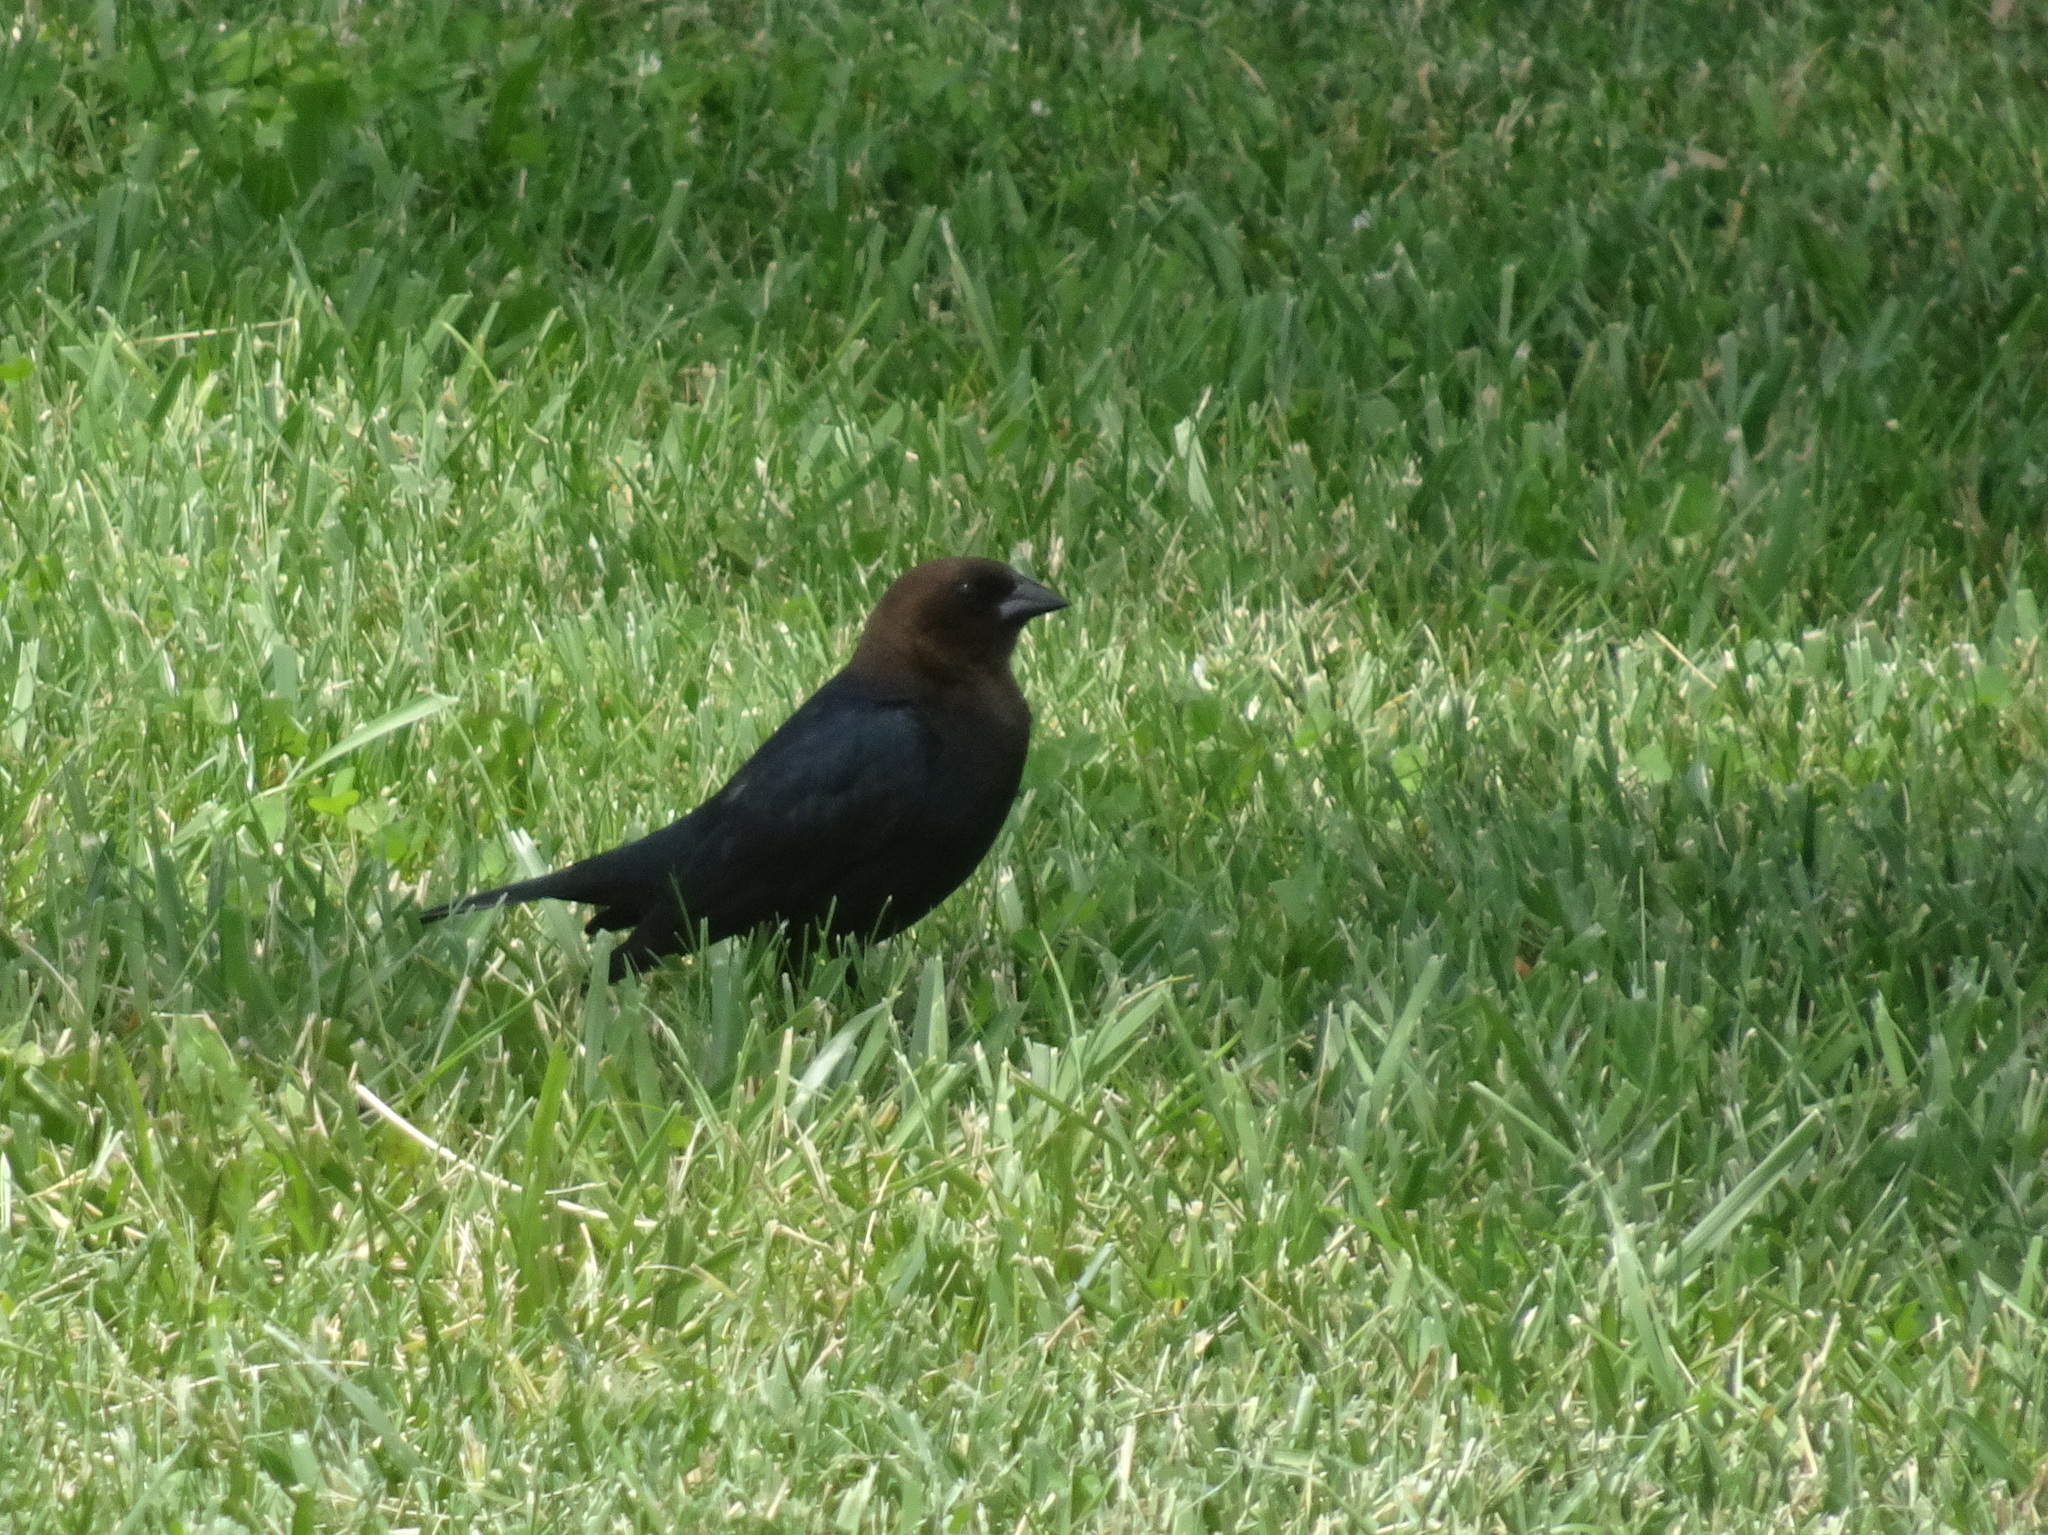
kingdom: Animalia
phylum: Chordata
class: Aves
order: Passeriformes
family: Icteridae
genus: Molothrus
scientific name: Molothrus ater
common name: Brown-headed cowbird
